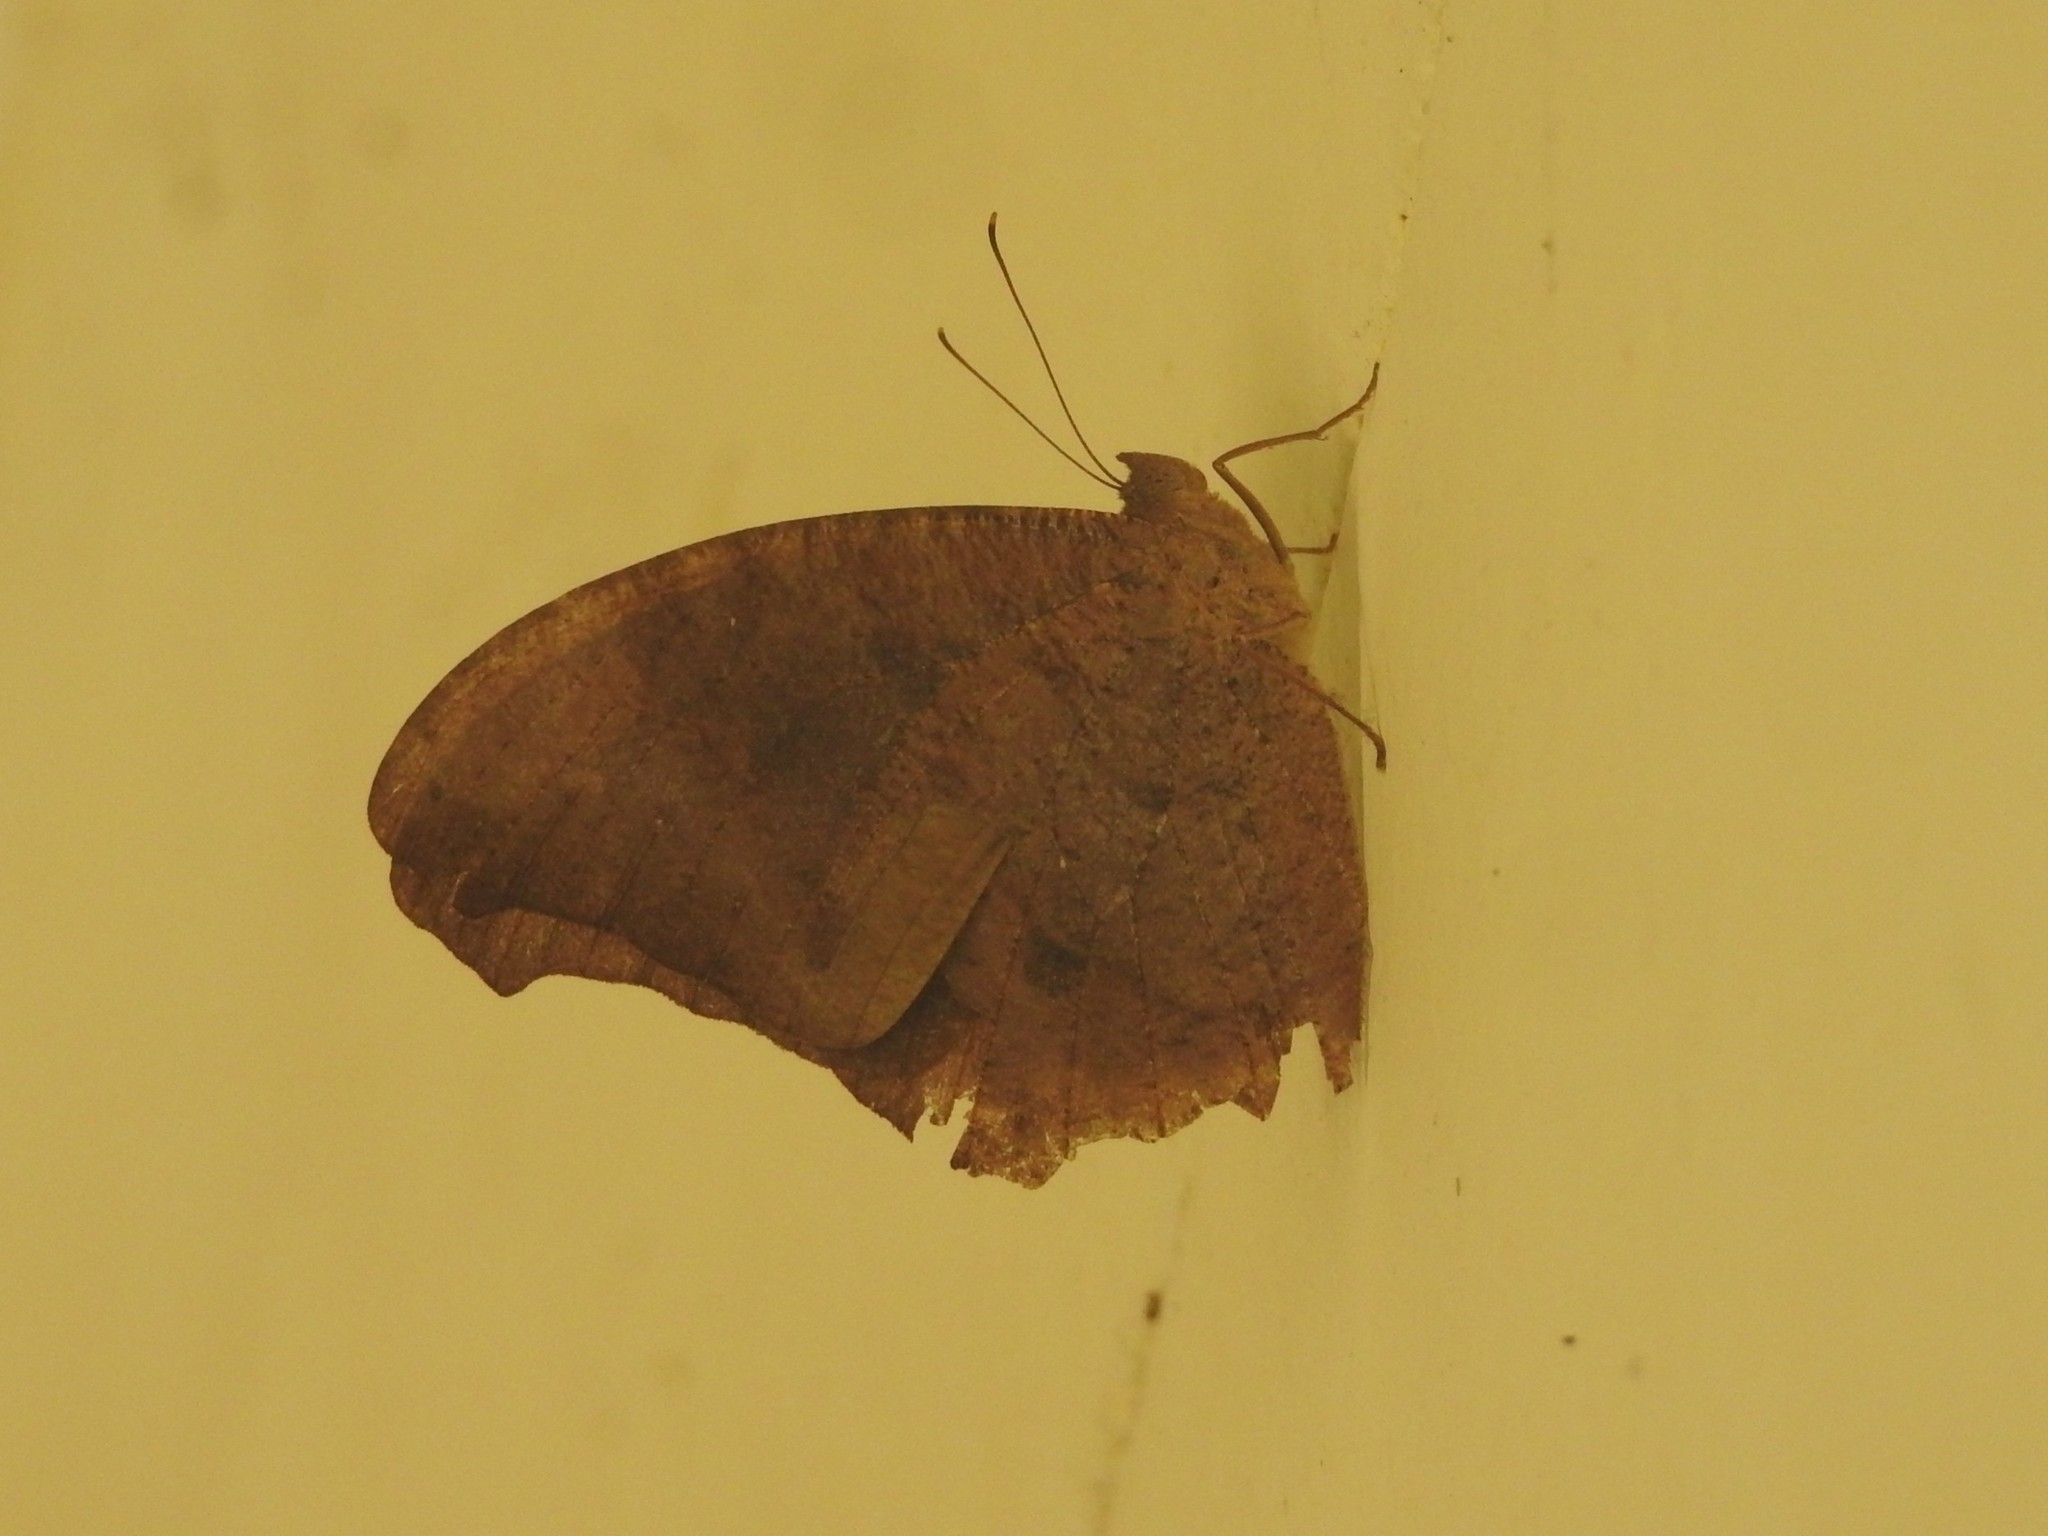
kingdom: Animalia
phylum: Arthropoda
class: Insecta
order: Lepidoptera
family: Nymphalidae
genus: Melanitis
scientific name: Melanitis leda
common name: Twilight brown
